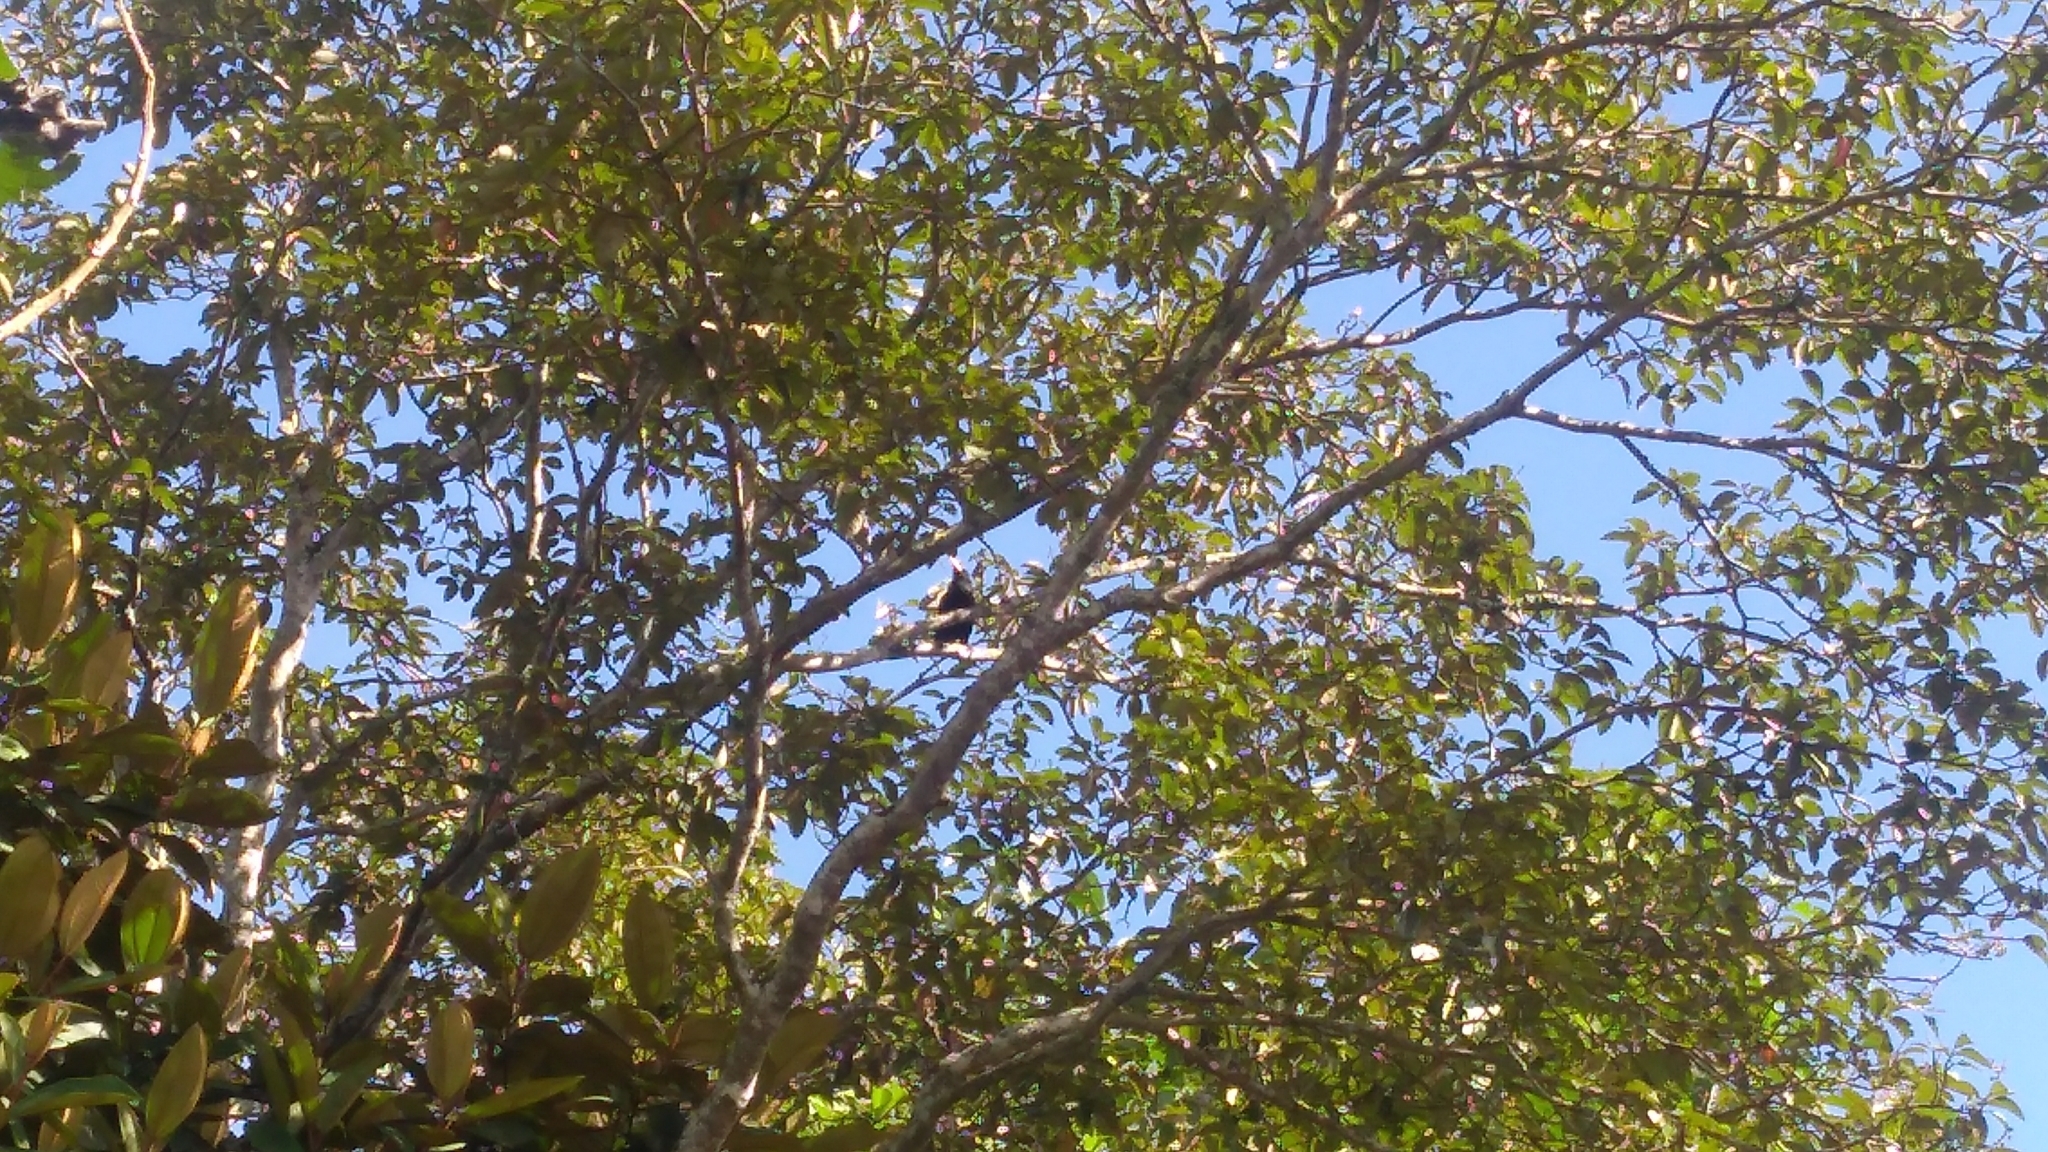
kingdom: Animalia
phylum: Chordata
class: Aves
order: Passeriformes
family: Icteridae
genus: Psarocolius
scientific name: Psarocolius decumanus
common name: Crested oropendola
